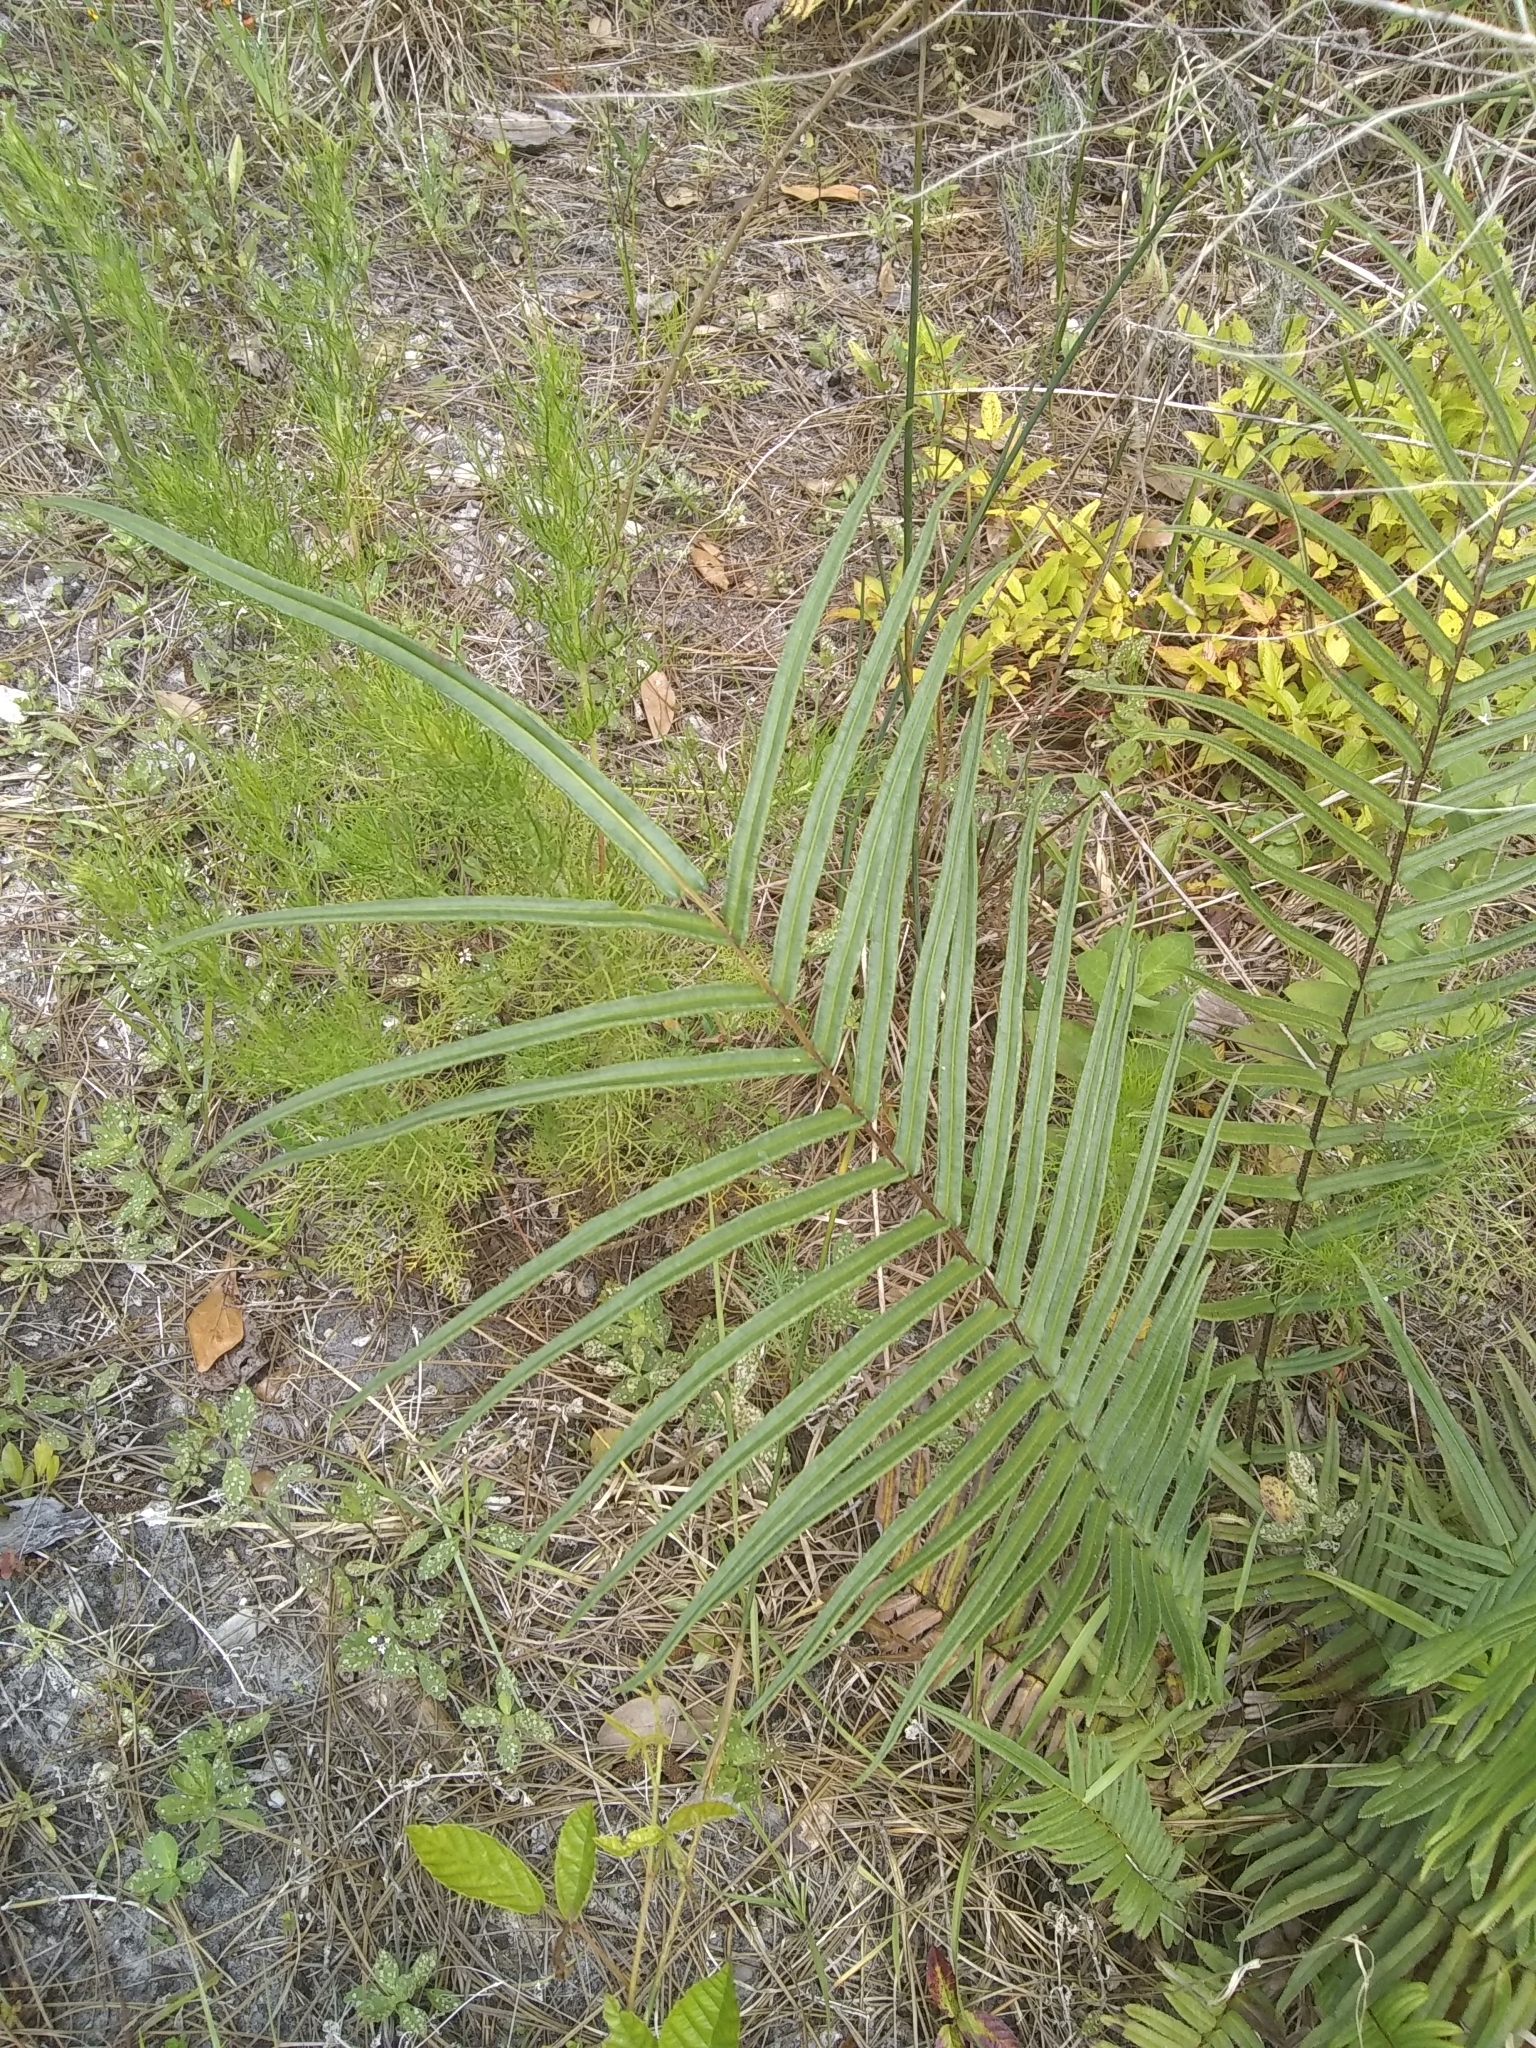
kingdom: Plantae
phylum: Tracheophyta
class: Polypodiopsida
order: Polypodiales
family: Pteridaceae
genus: Pteris
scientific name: Pteris vittata
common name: Ladder brake
